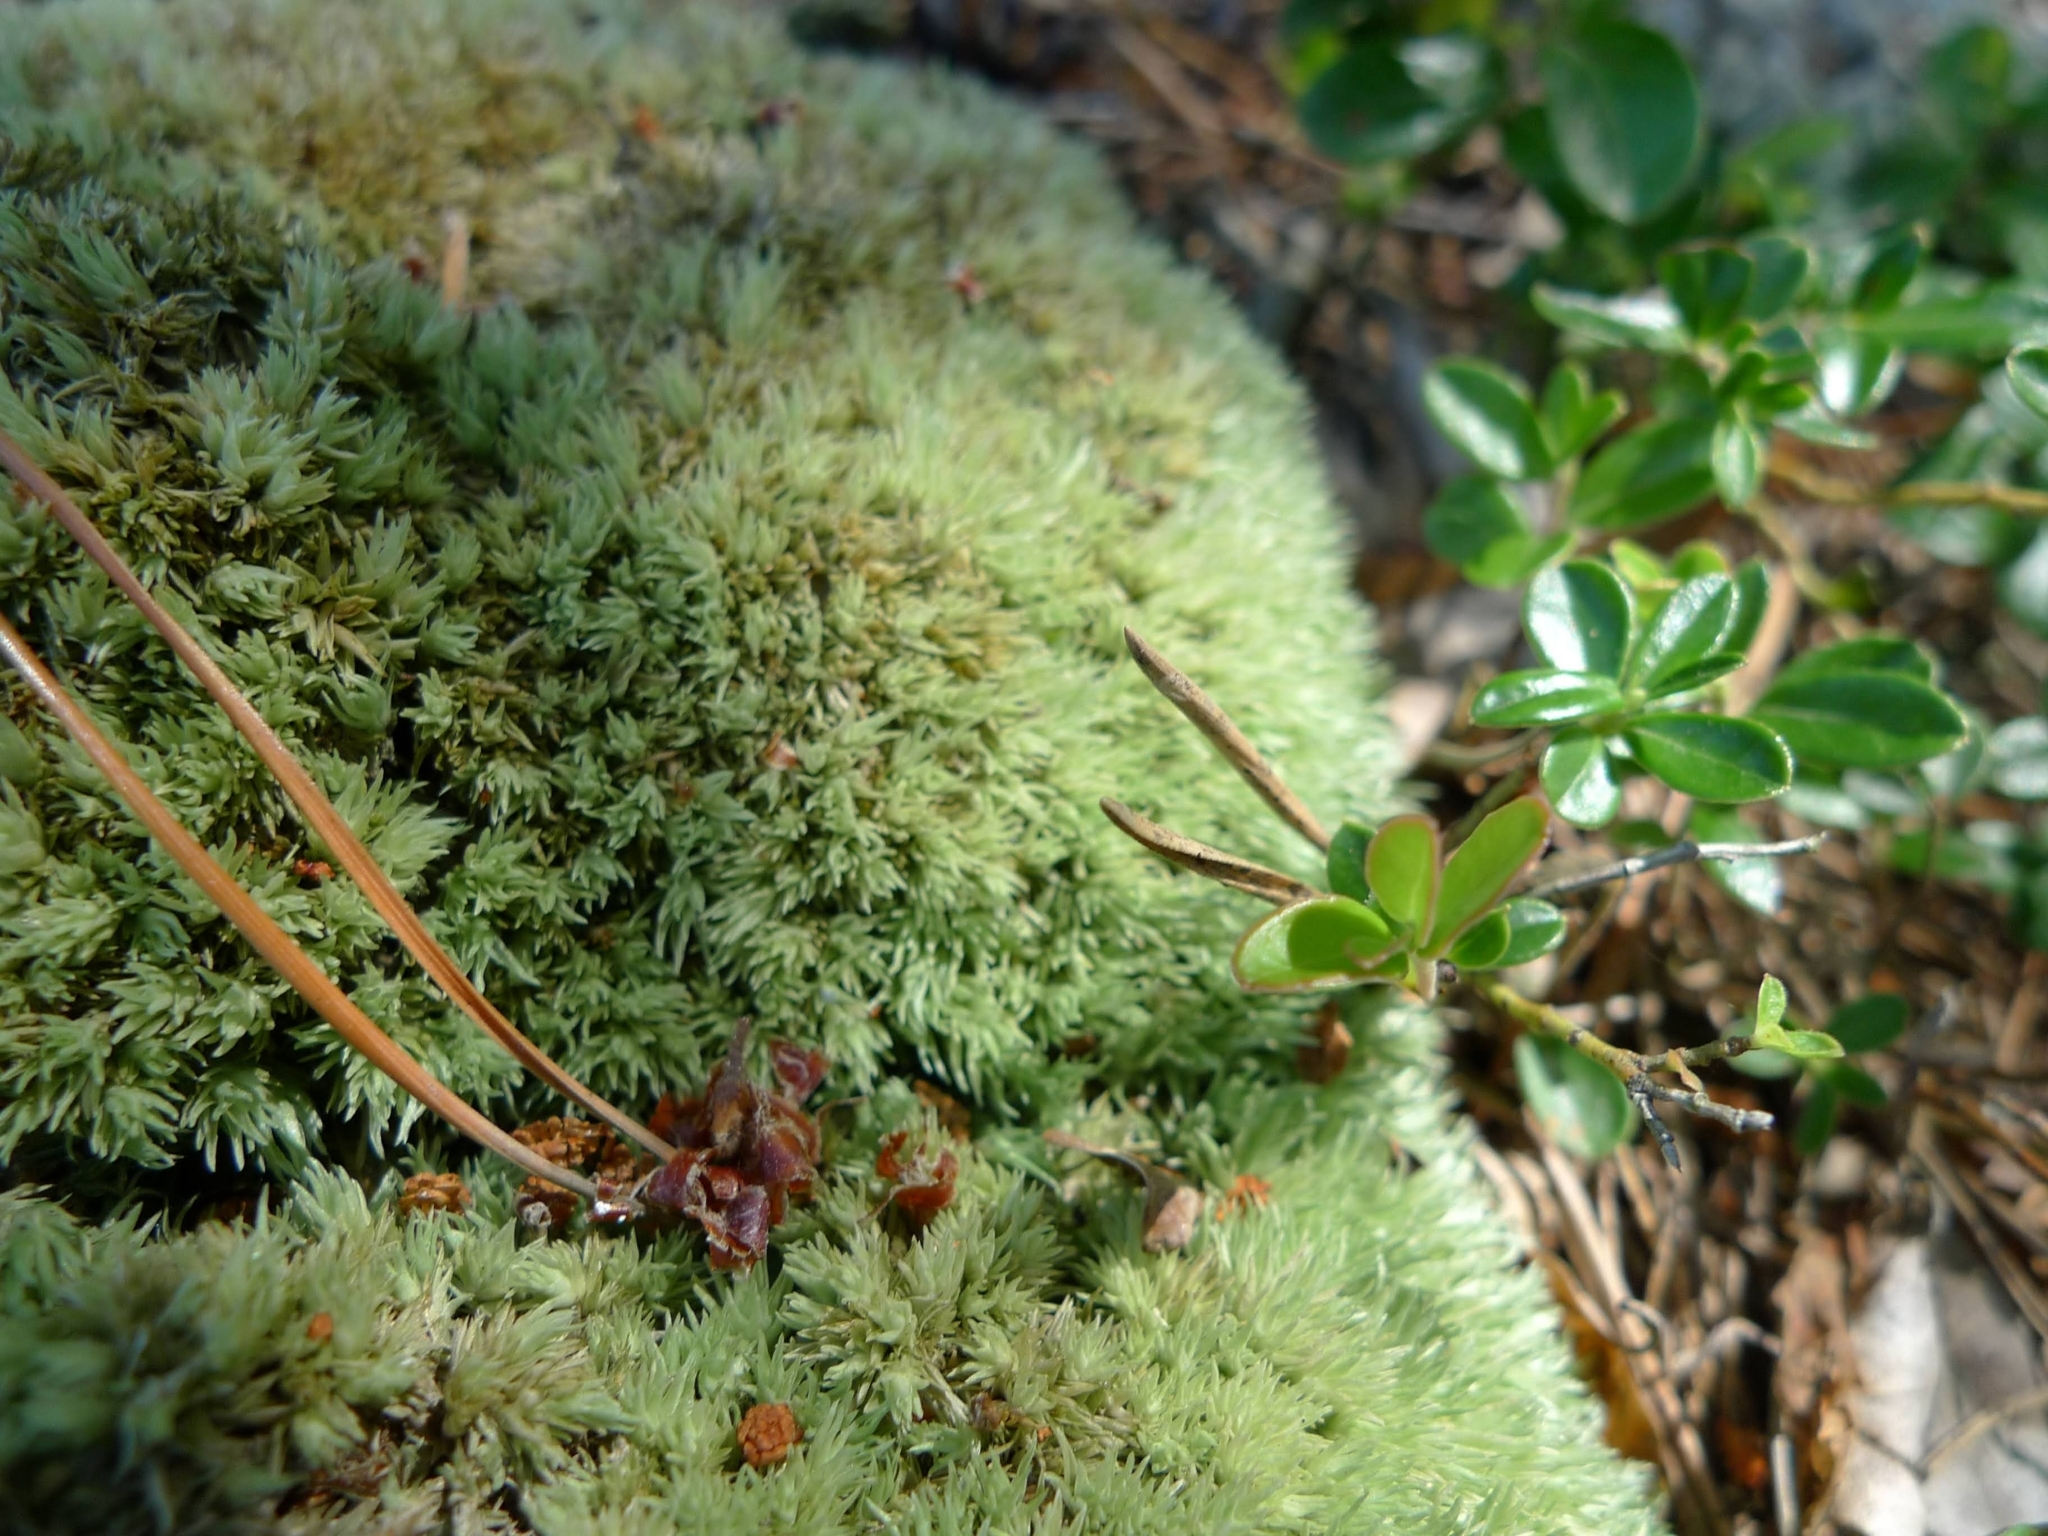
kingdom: Plantae
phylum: Bryophyta
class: Bryopsida
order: Dicranales
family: Leucobryaceae
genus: Leucobryum
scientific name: Leucobryum glaucum
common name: Large white-moss
